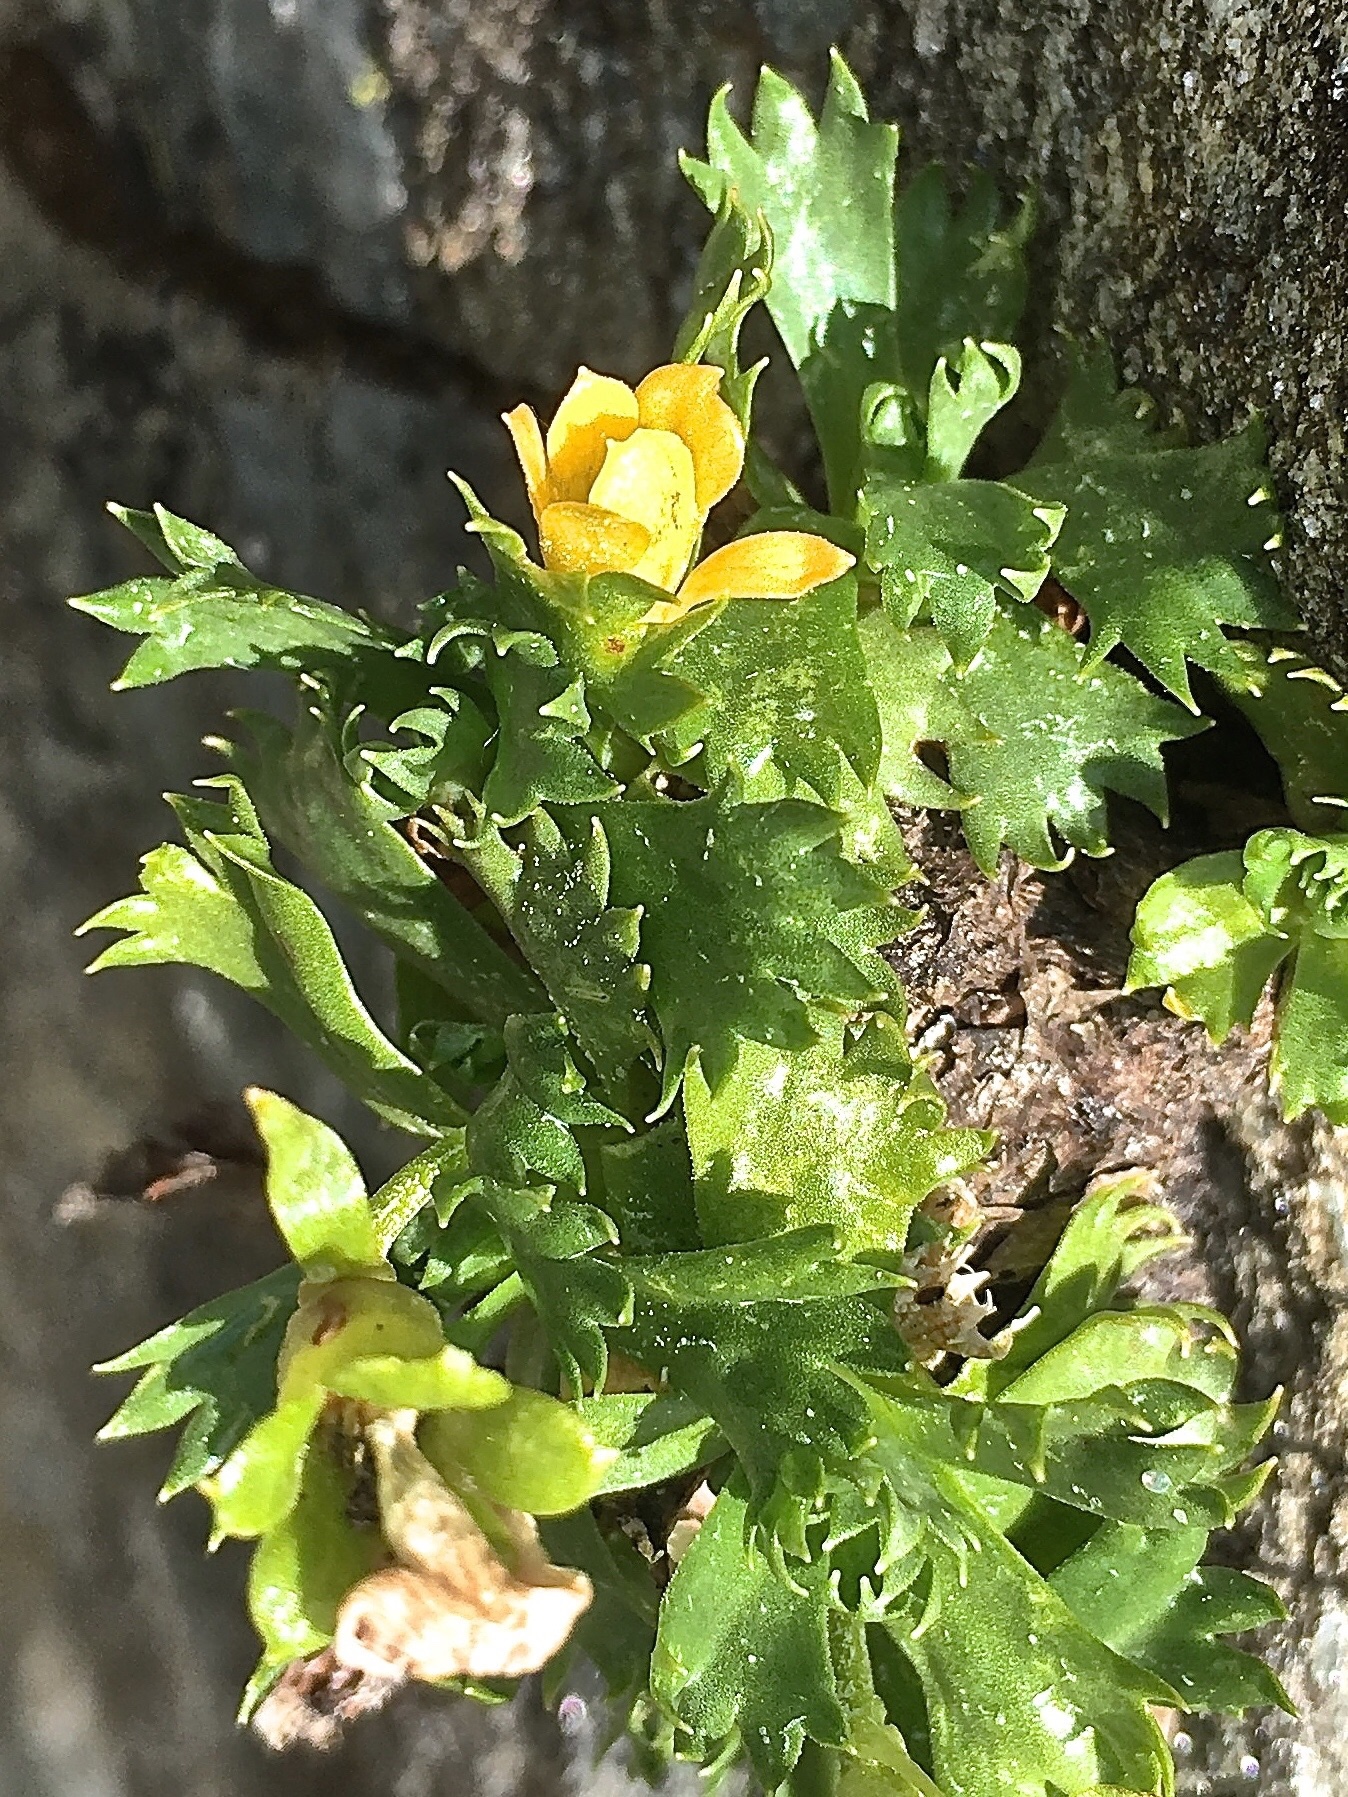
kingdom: Plantae
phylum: Tracheophyta
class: Magnoliopsida
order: Ericales
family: Primulaceae
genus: Primula
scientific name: Primula minima
